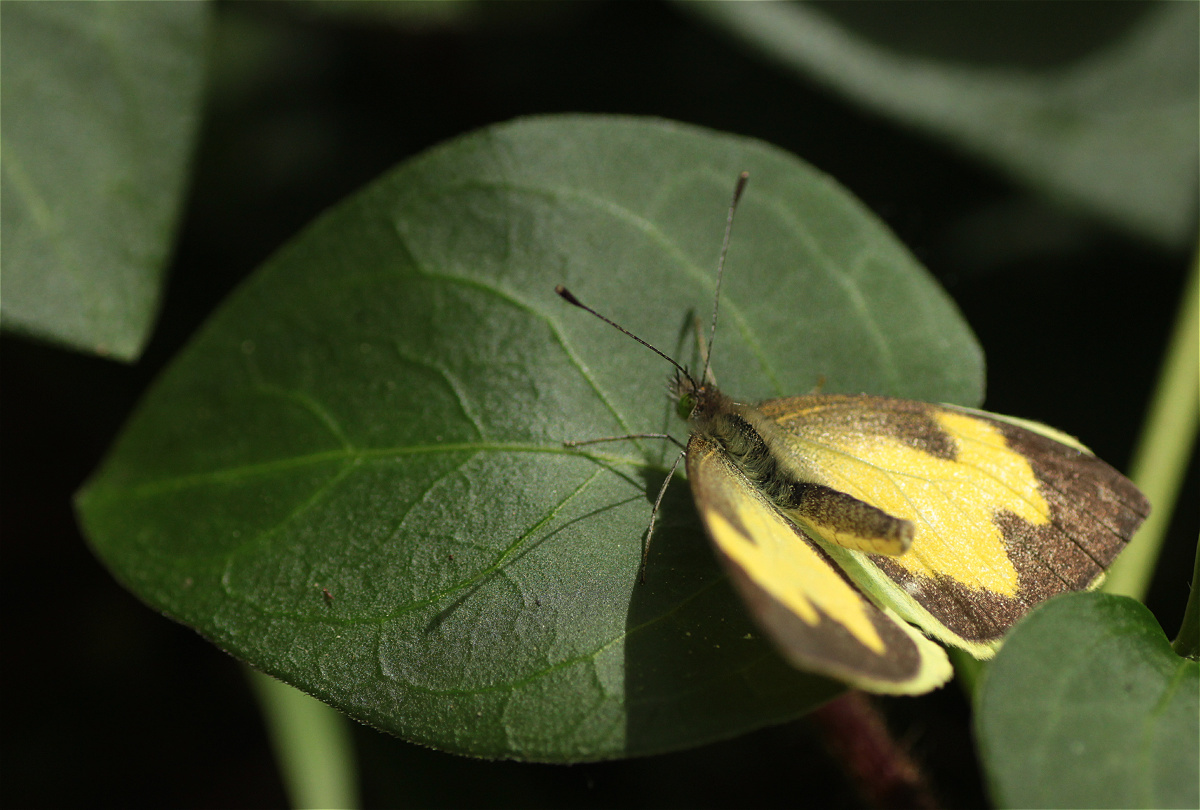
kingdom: Animalia
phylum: Arthropoda
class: Insecta
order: Lepidoptera
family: Pieridae
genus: Leptophobia
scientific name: Leptophobia eleone
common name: Silky wanderer
